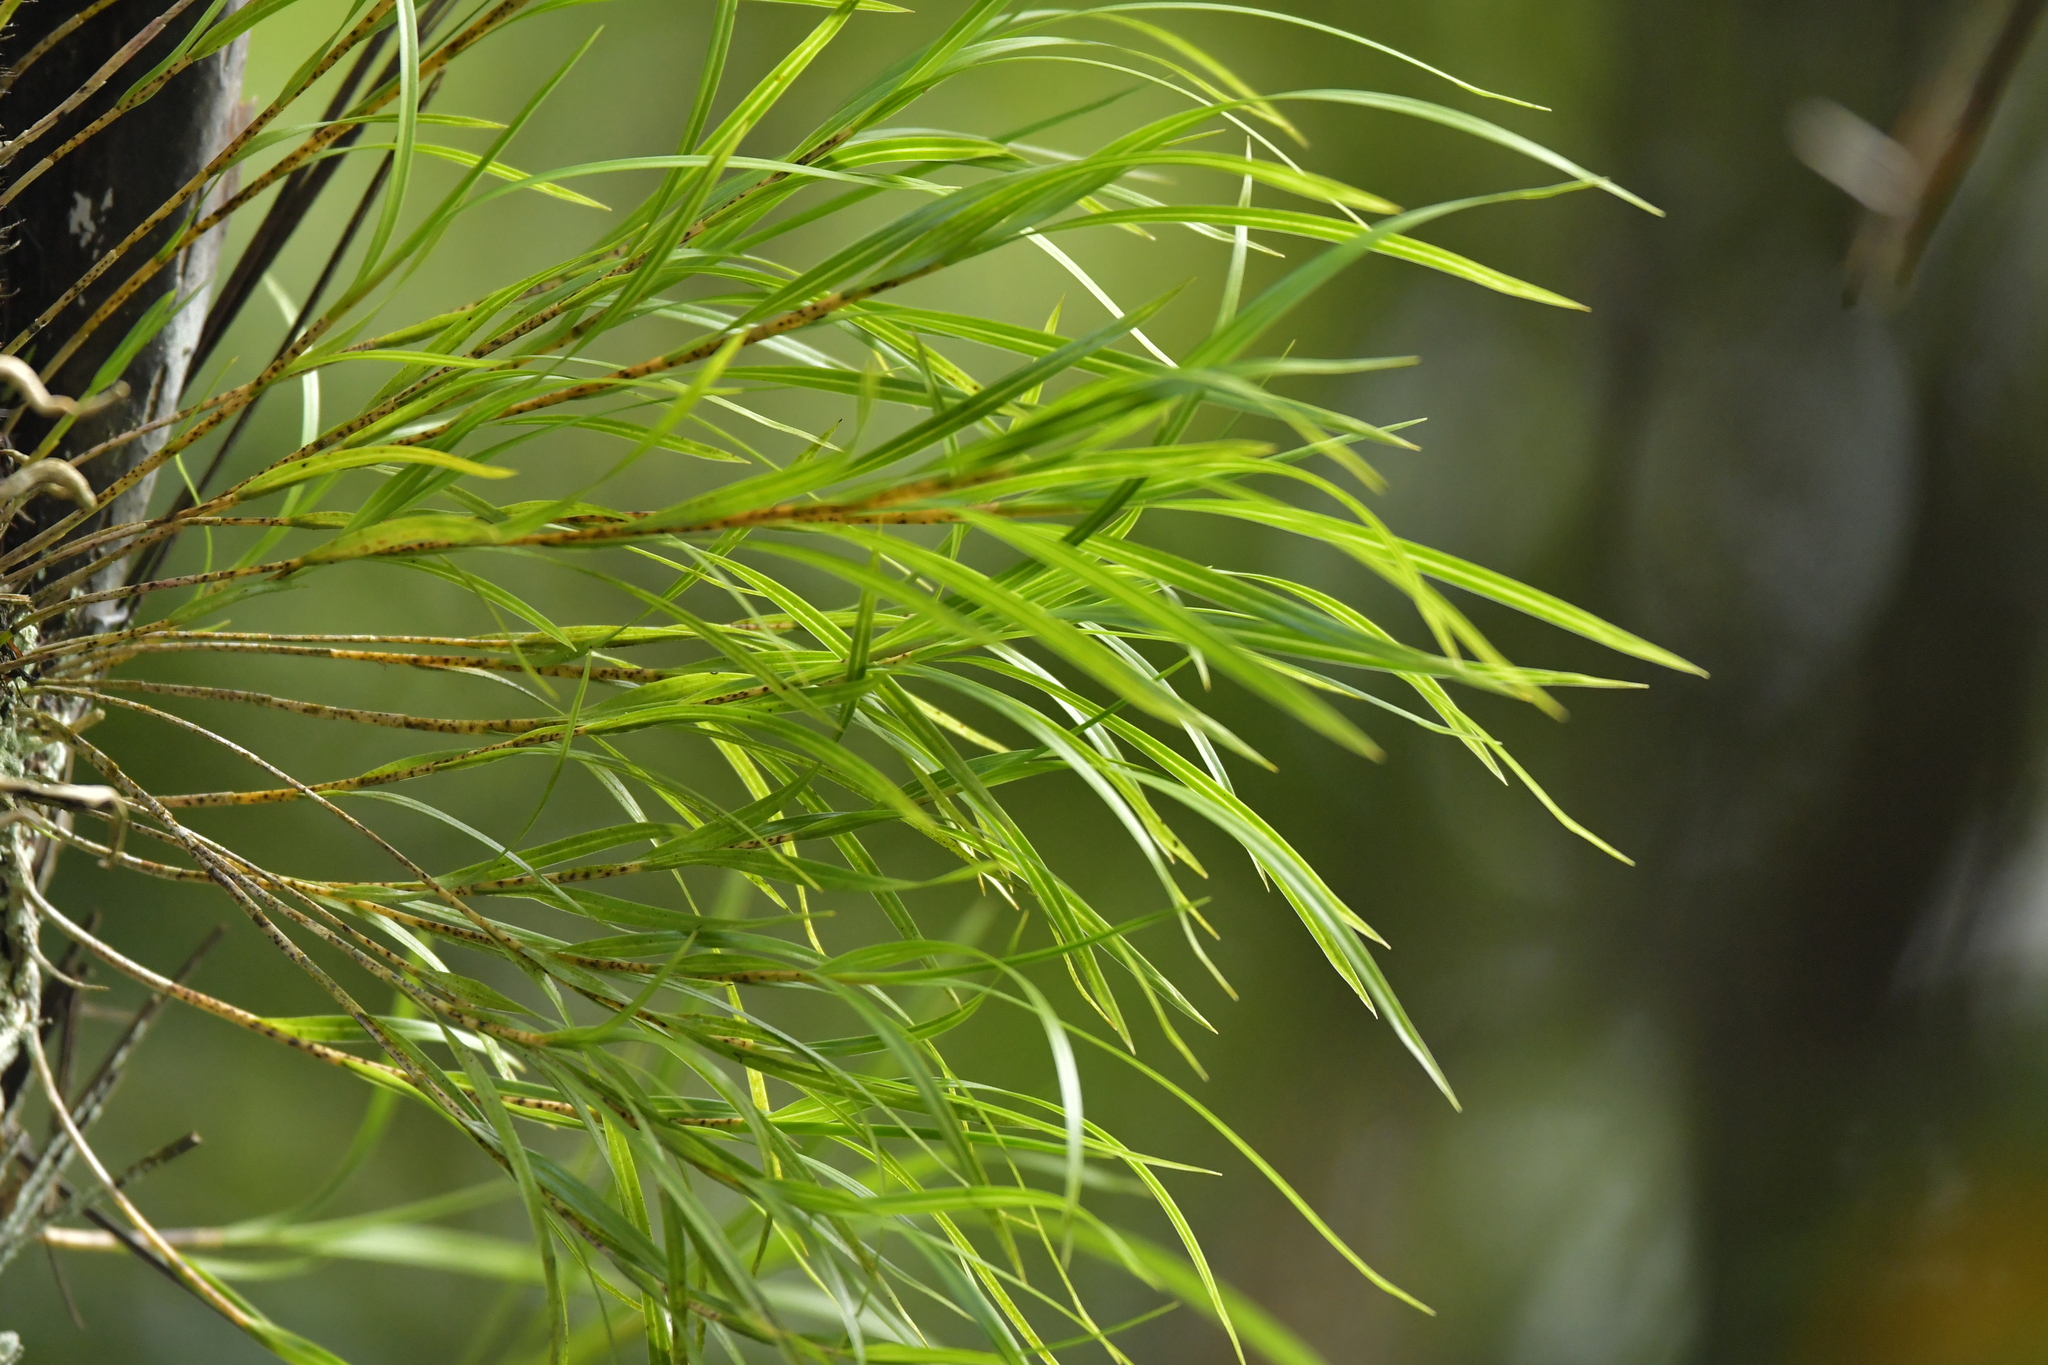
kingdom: Plantae
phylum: Tracheophyta
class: Liliopsida
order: Asparagales
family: Orchidaceae
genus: Earina
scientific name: Earina mucronata
